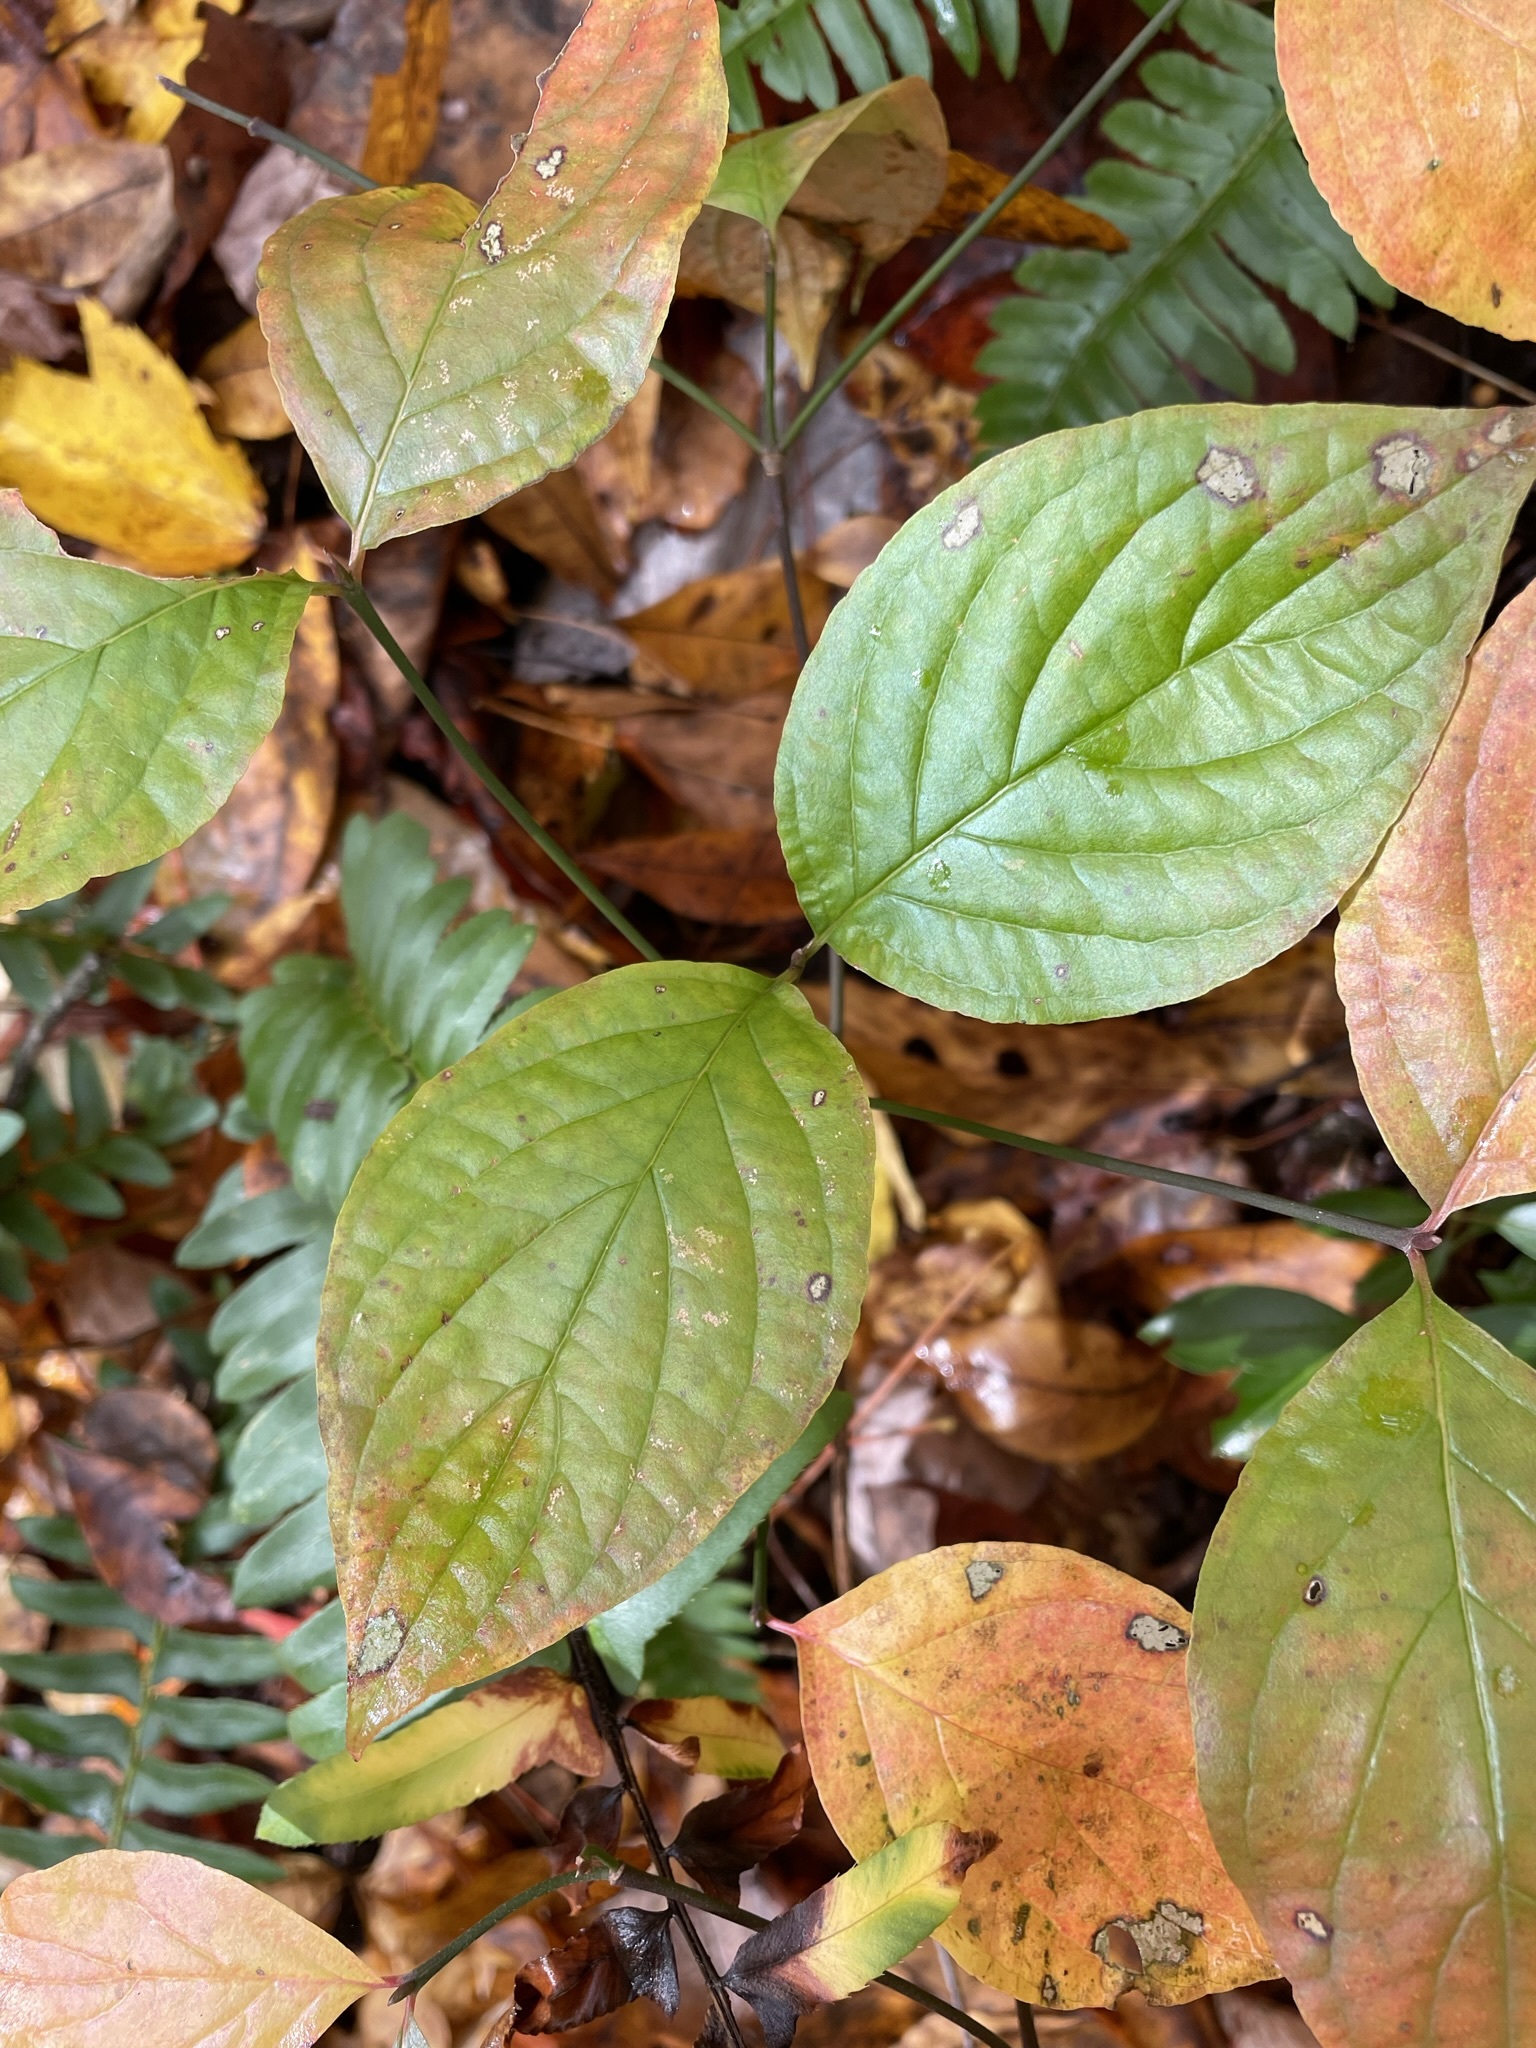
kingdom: Plantae
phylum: Tracheophyta
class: Magnoliopsida
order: Cornales
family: Cornaceae
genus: Cornus
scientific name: Cornus florida
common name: Flowering dogwood
